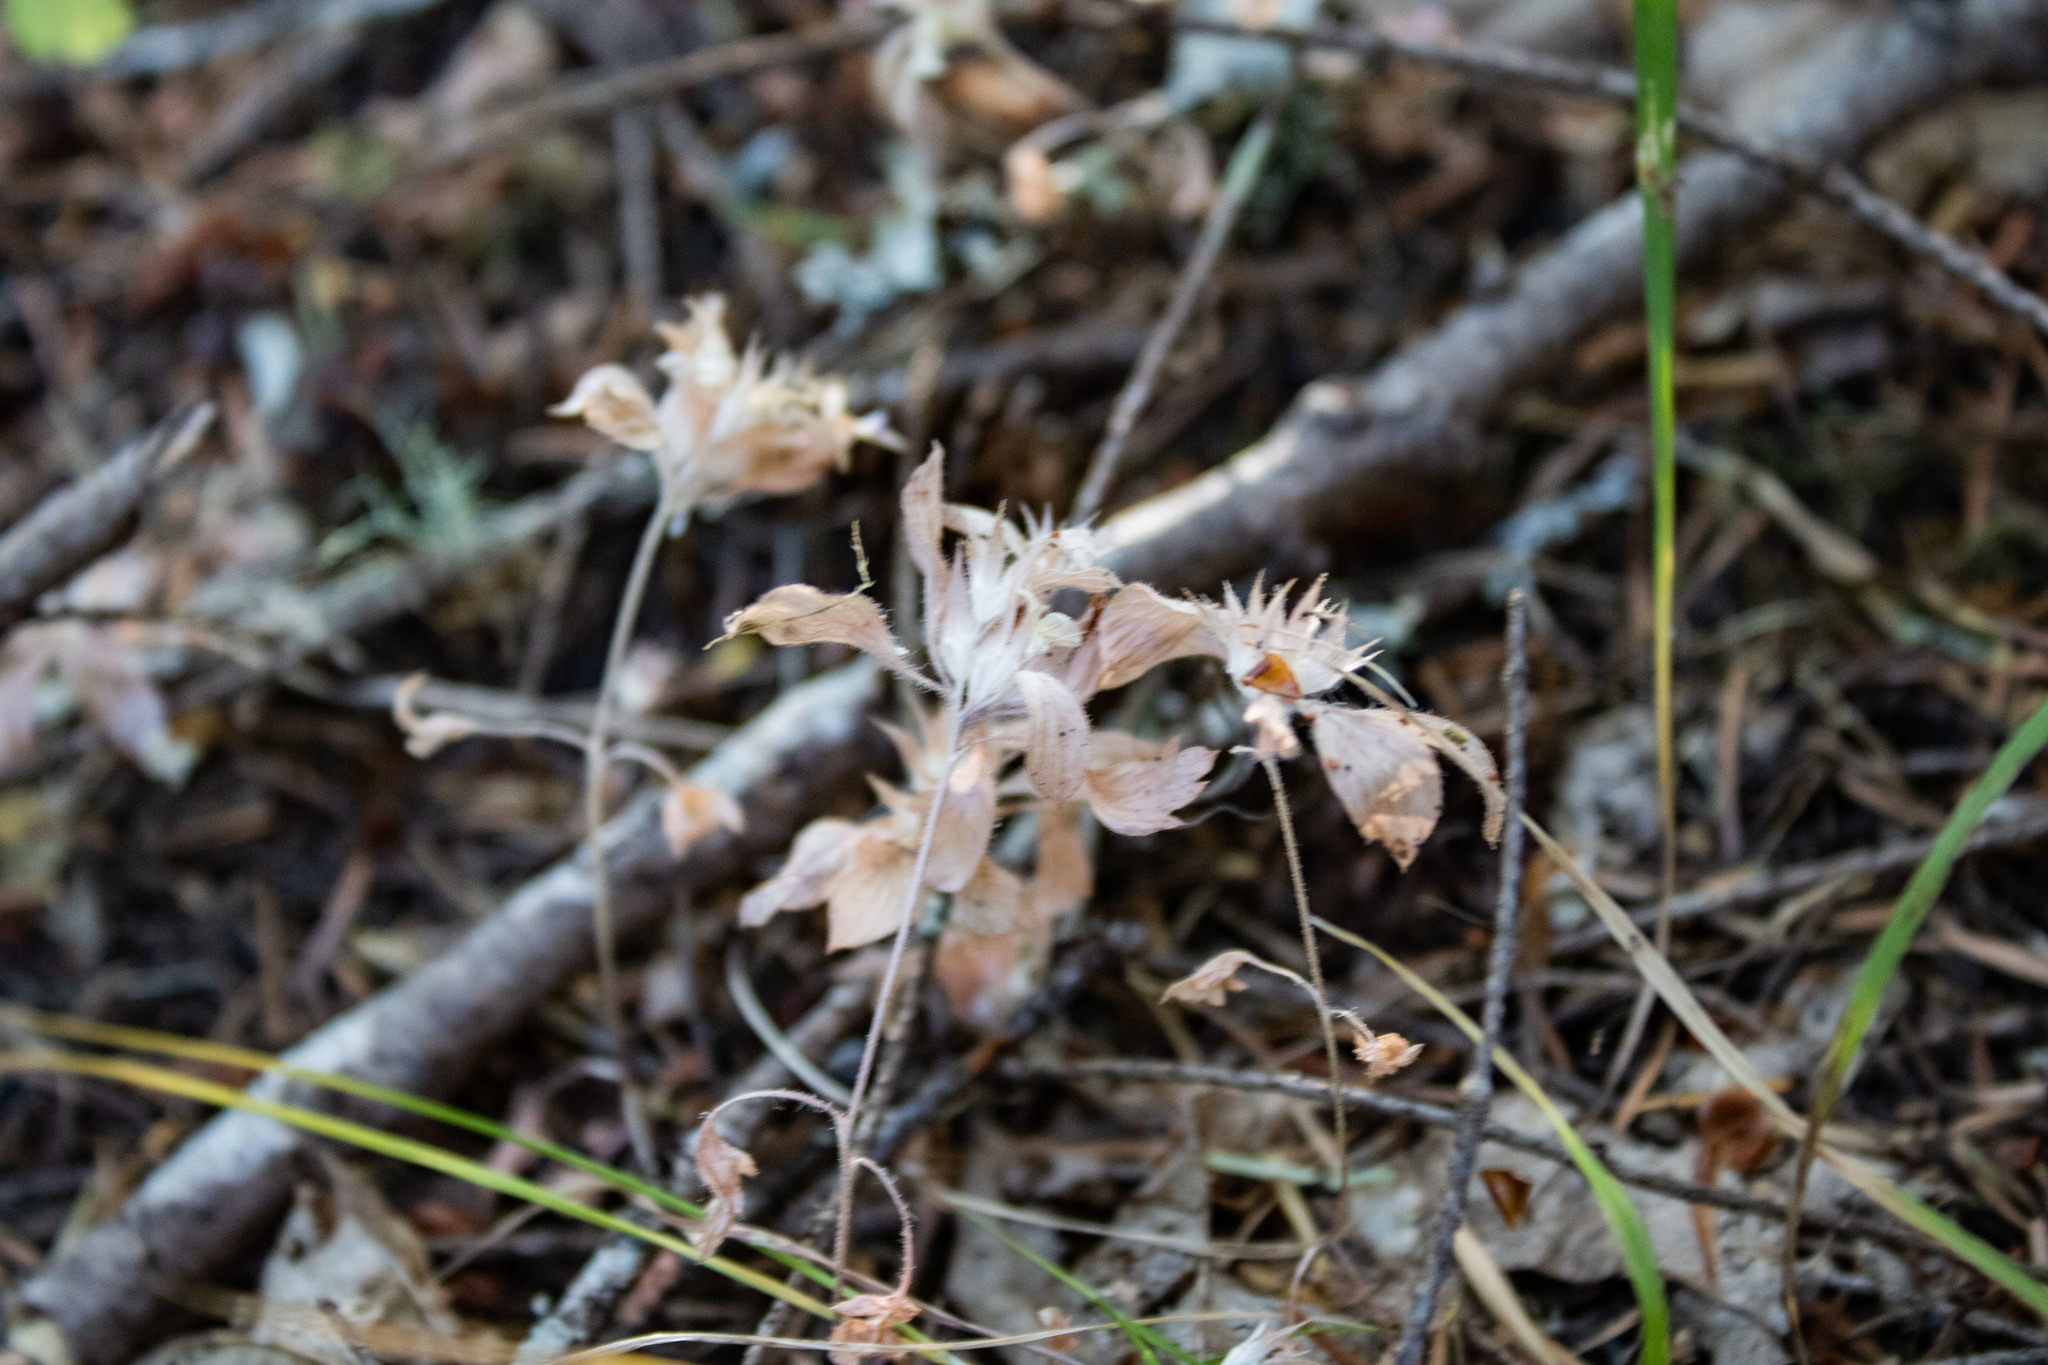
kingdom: Plantae
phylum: Tracheophyta
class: Magnoliopsida
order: Ericales
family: Polemoniaceae
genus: Collomia
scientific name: Collomia heterophylla
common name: Variable-leaved collomia
